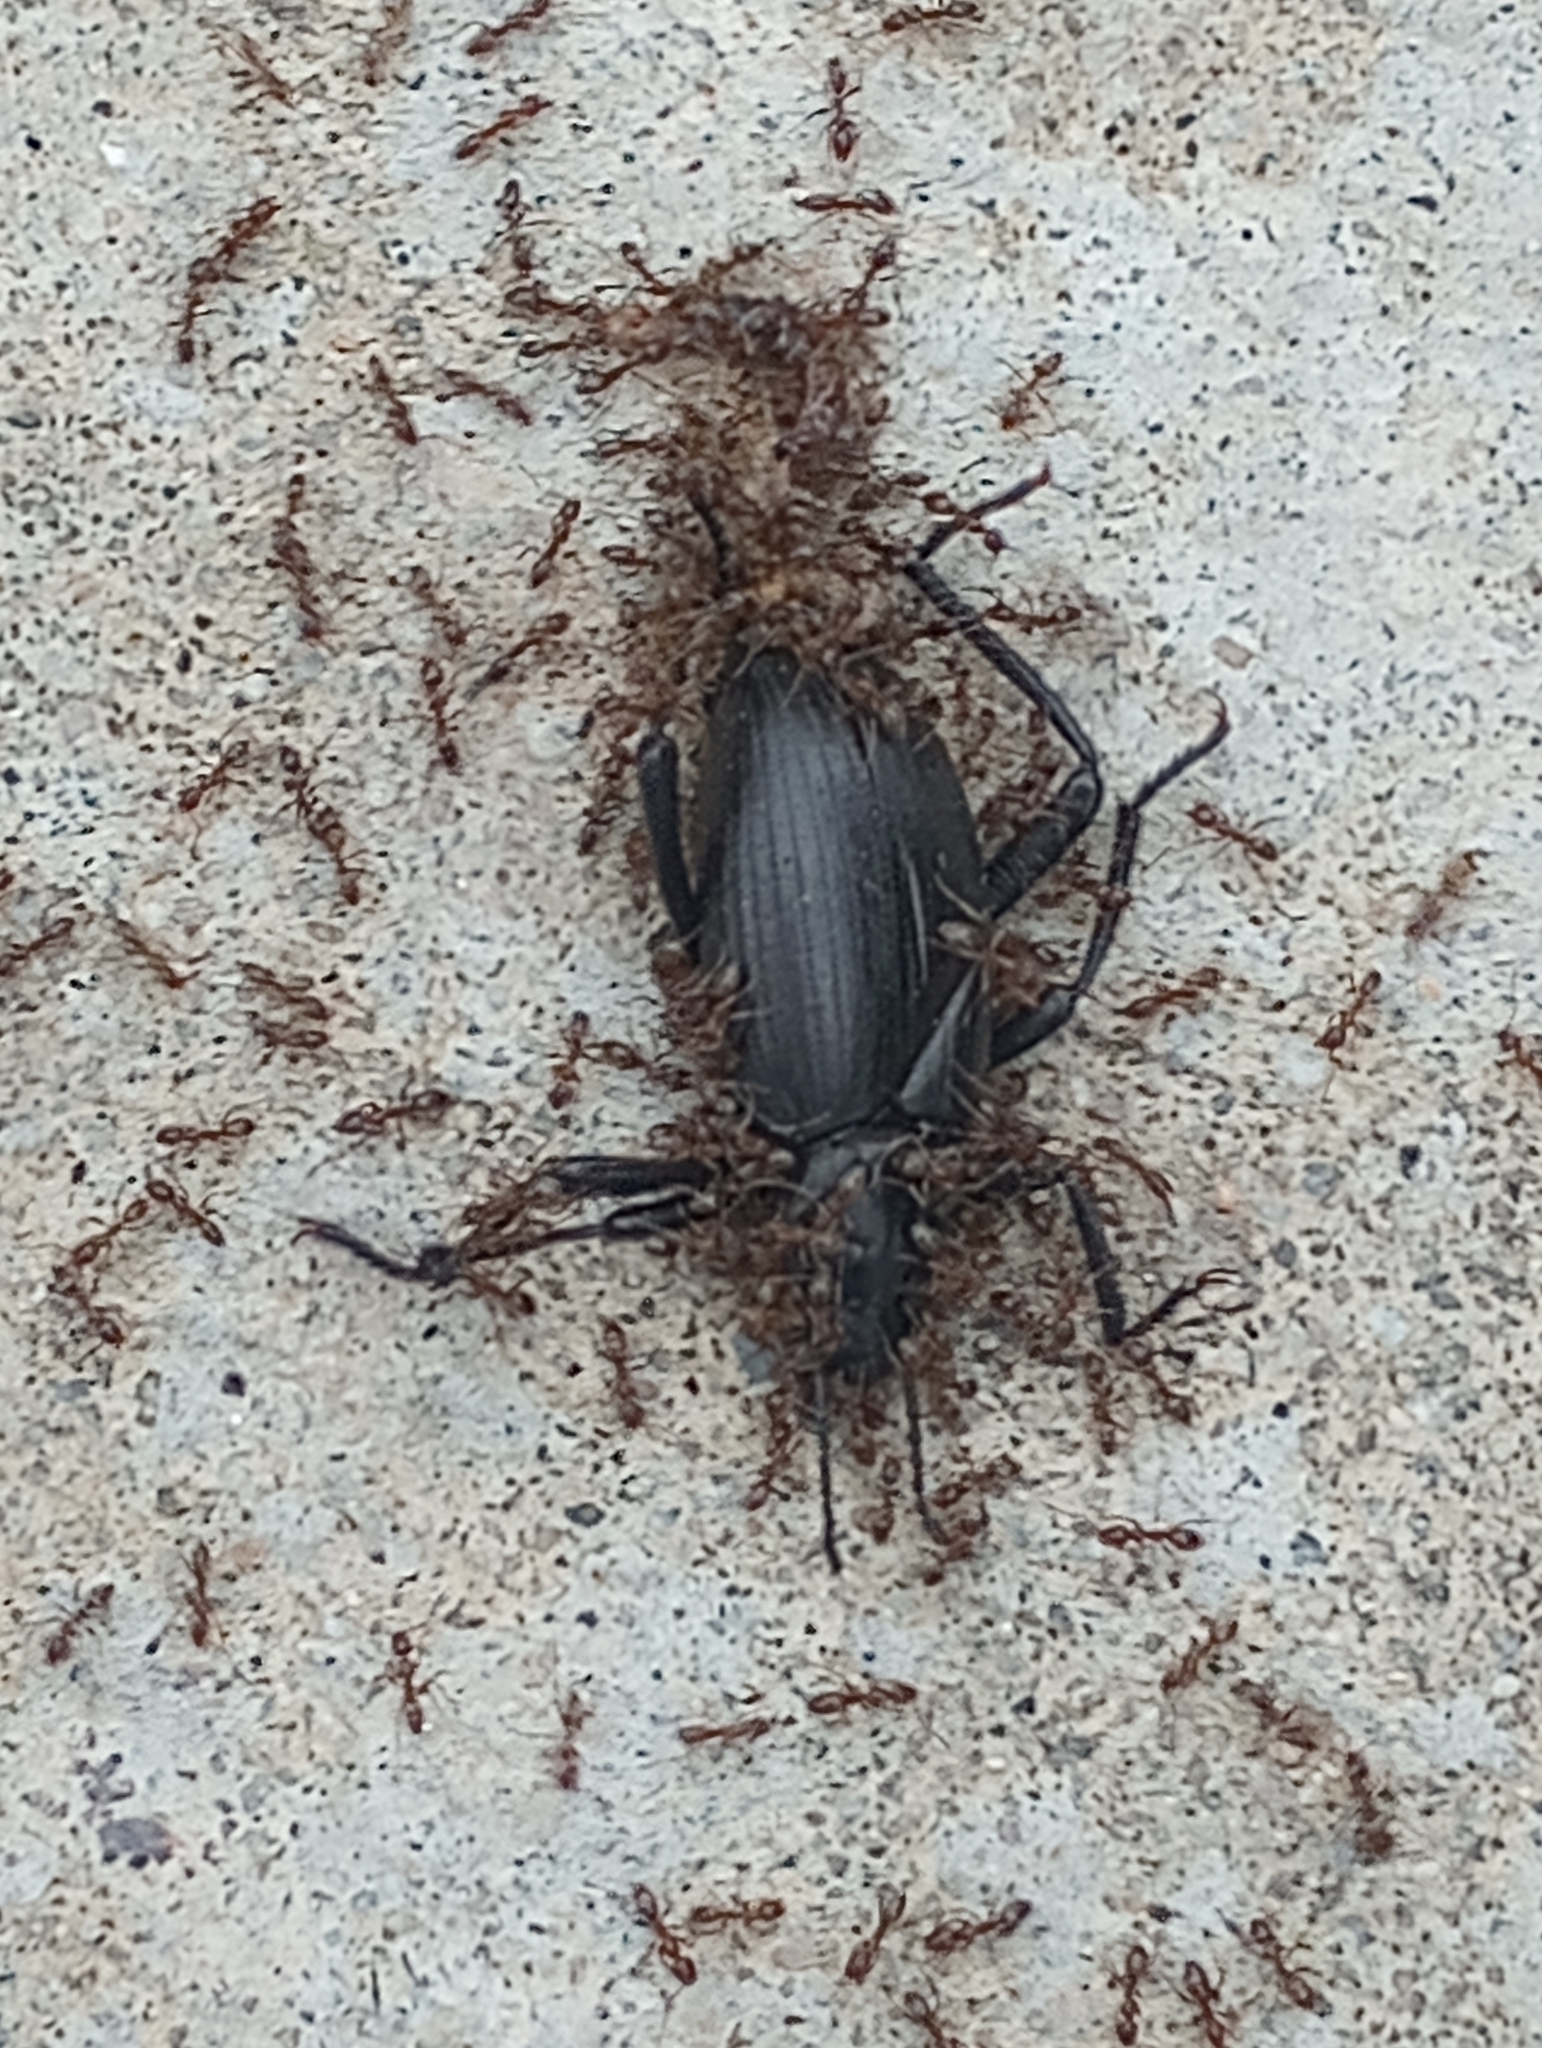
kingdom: Animalia
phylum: Arthropoda
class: Insecta
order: Hymenoptera
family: Formicidae
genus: Linepithema
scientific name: Linepithema humile
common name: Argentine ant
